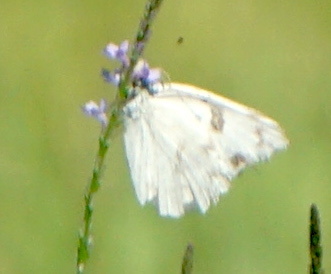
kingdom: Animalia
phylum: Arthropoda
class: Insecta
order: Lepidoptera
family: Pieridae
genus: Pontia
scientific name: Pontia protodice
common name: Checkered white
